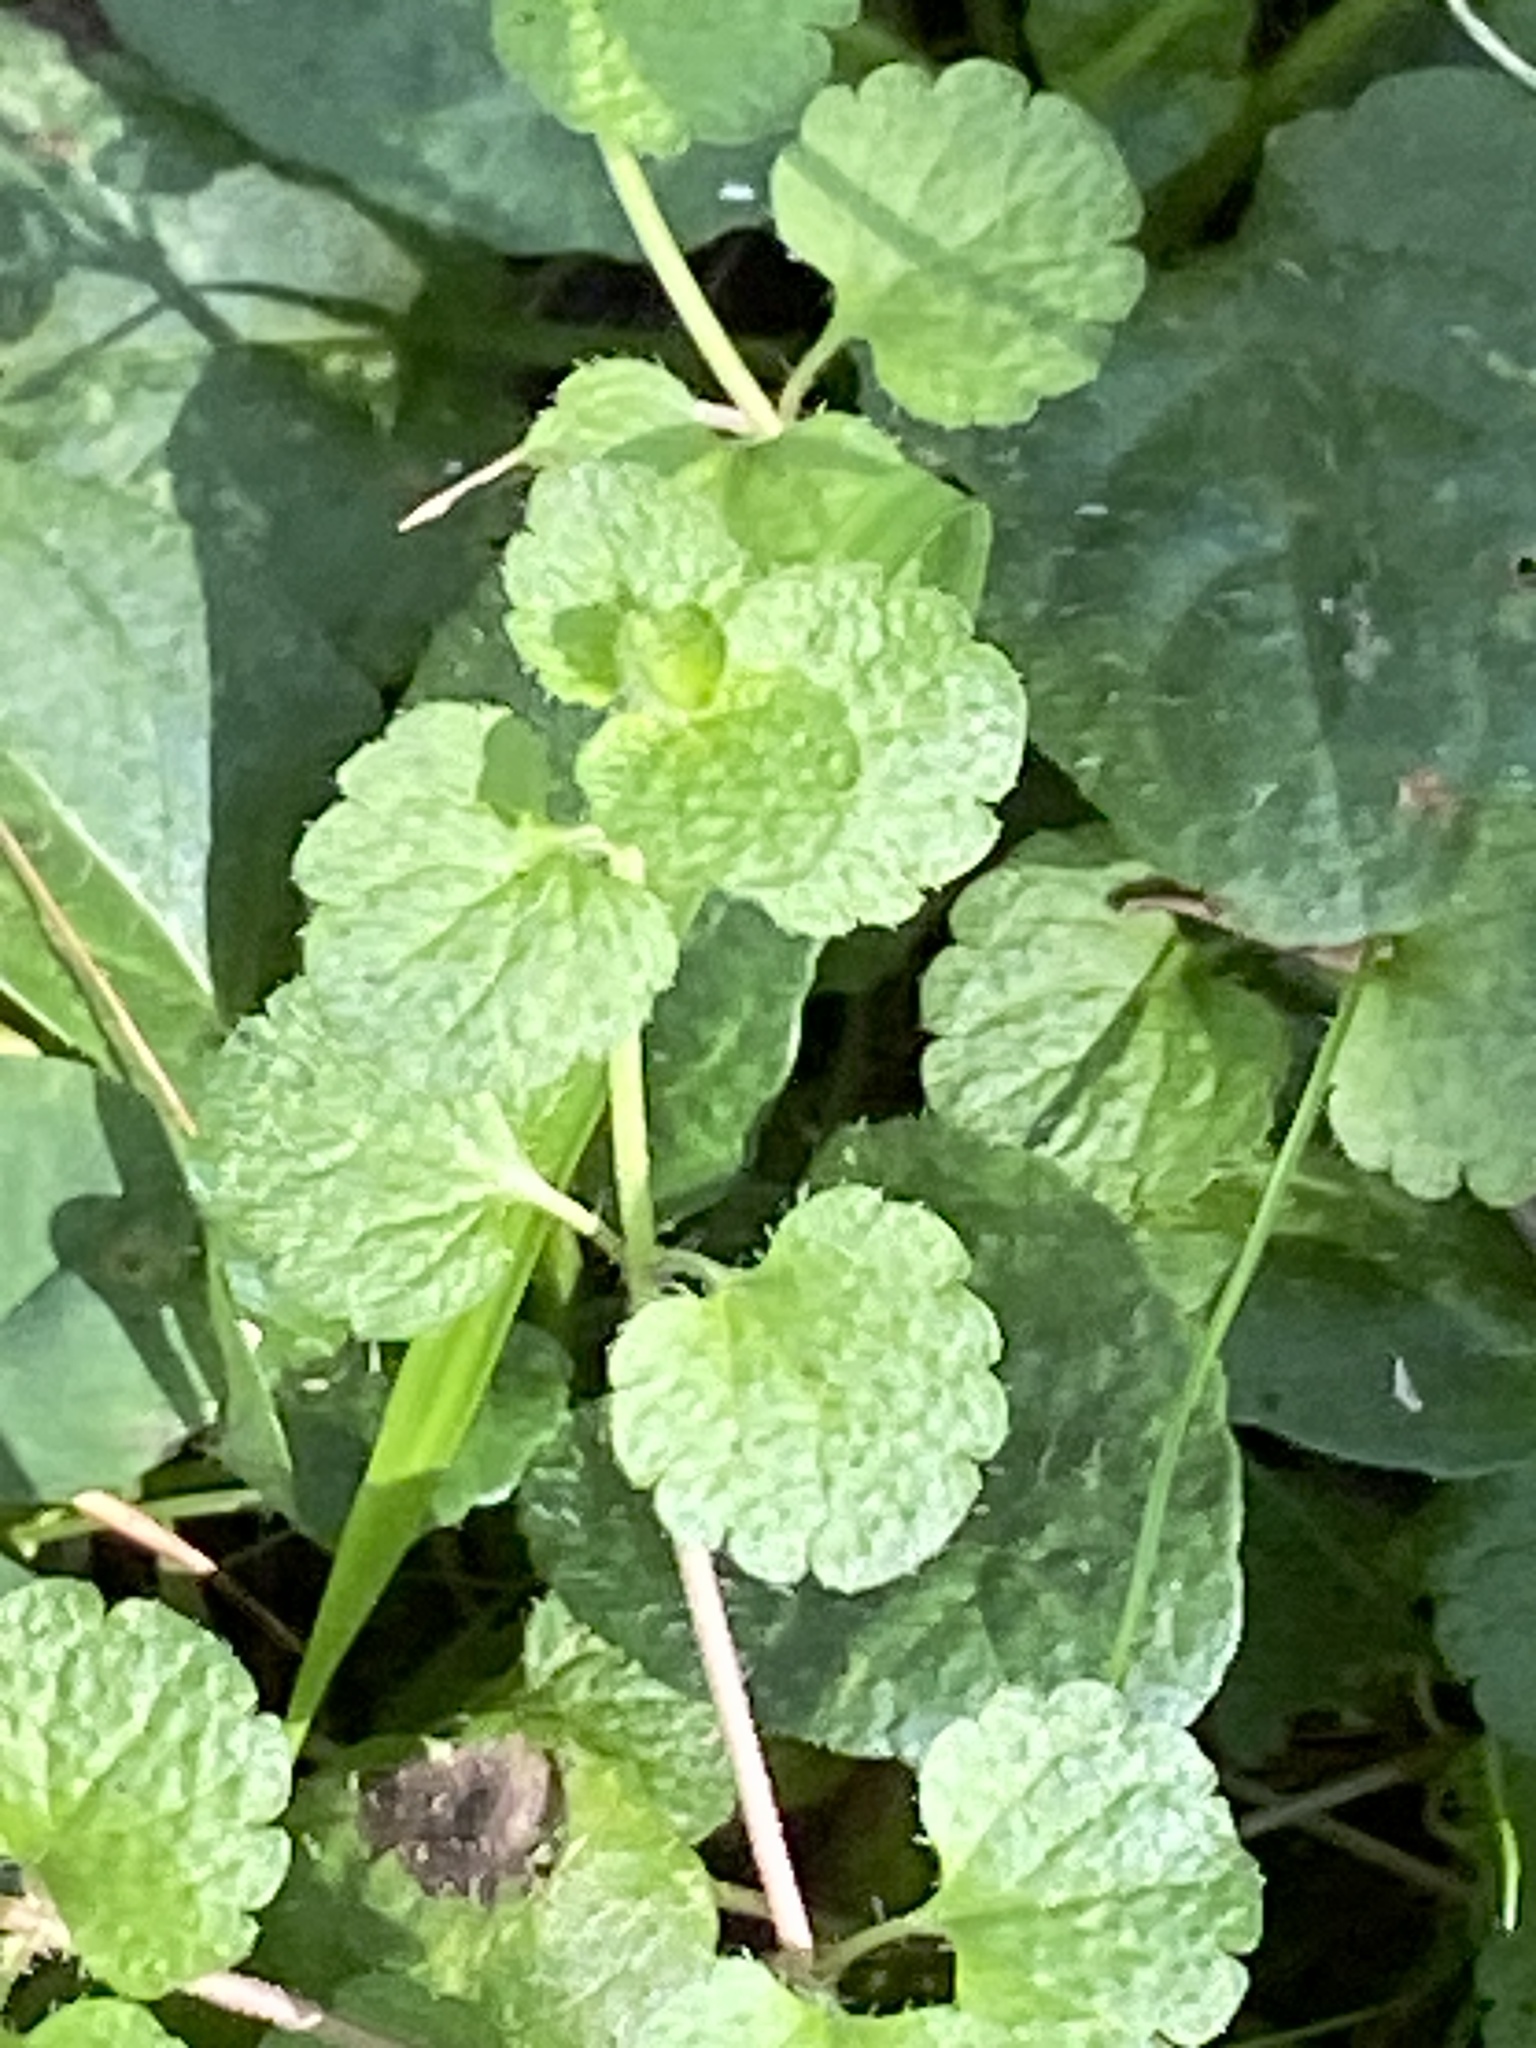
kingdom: Plantae
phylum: Tracheophyta
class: Magnoliopsida
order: Lamiales
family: Plantaginaceae
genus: Veronica
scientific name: Veronica filiformis
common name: Slender speedwell
